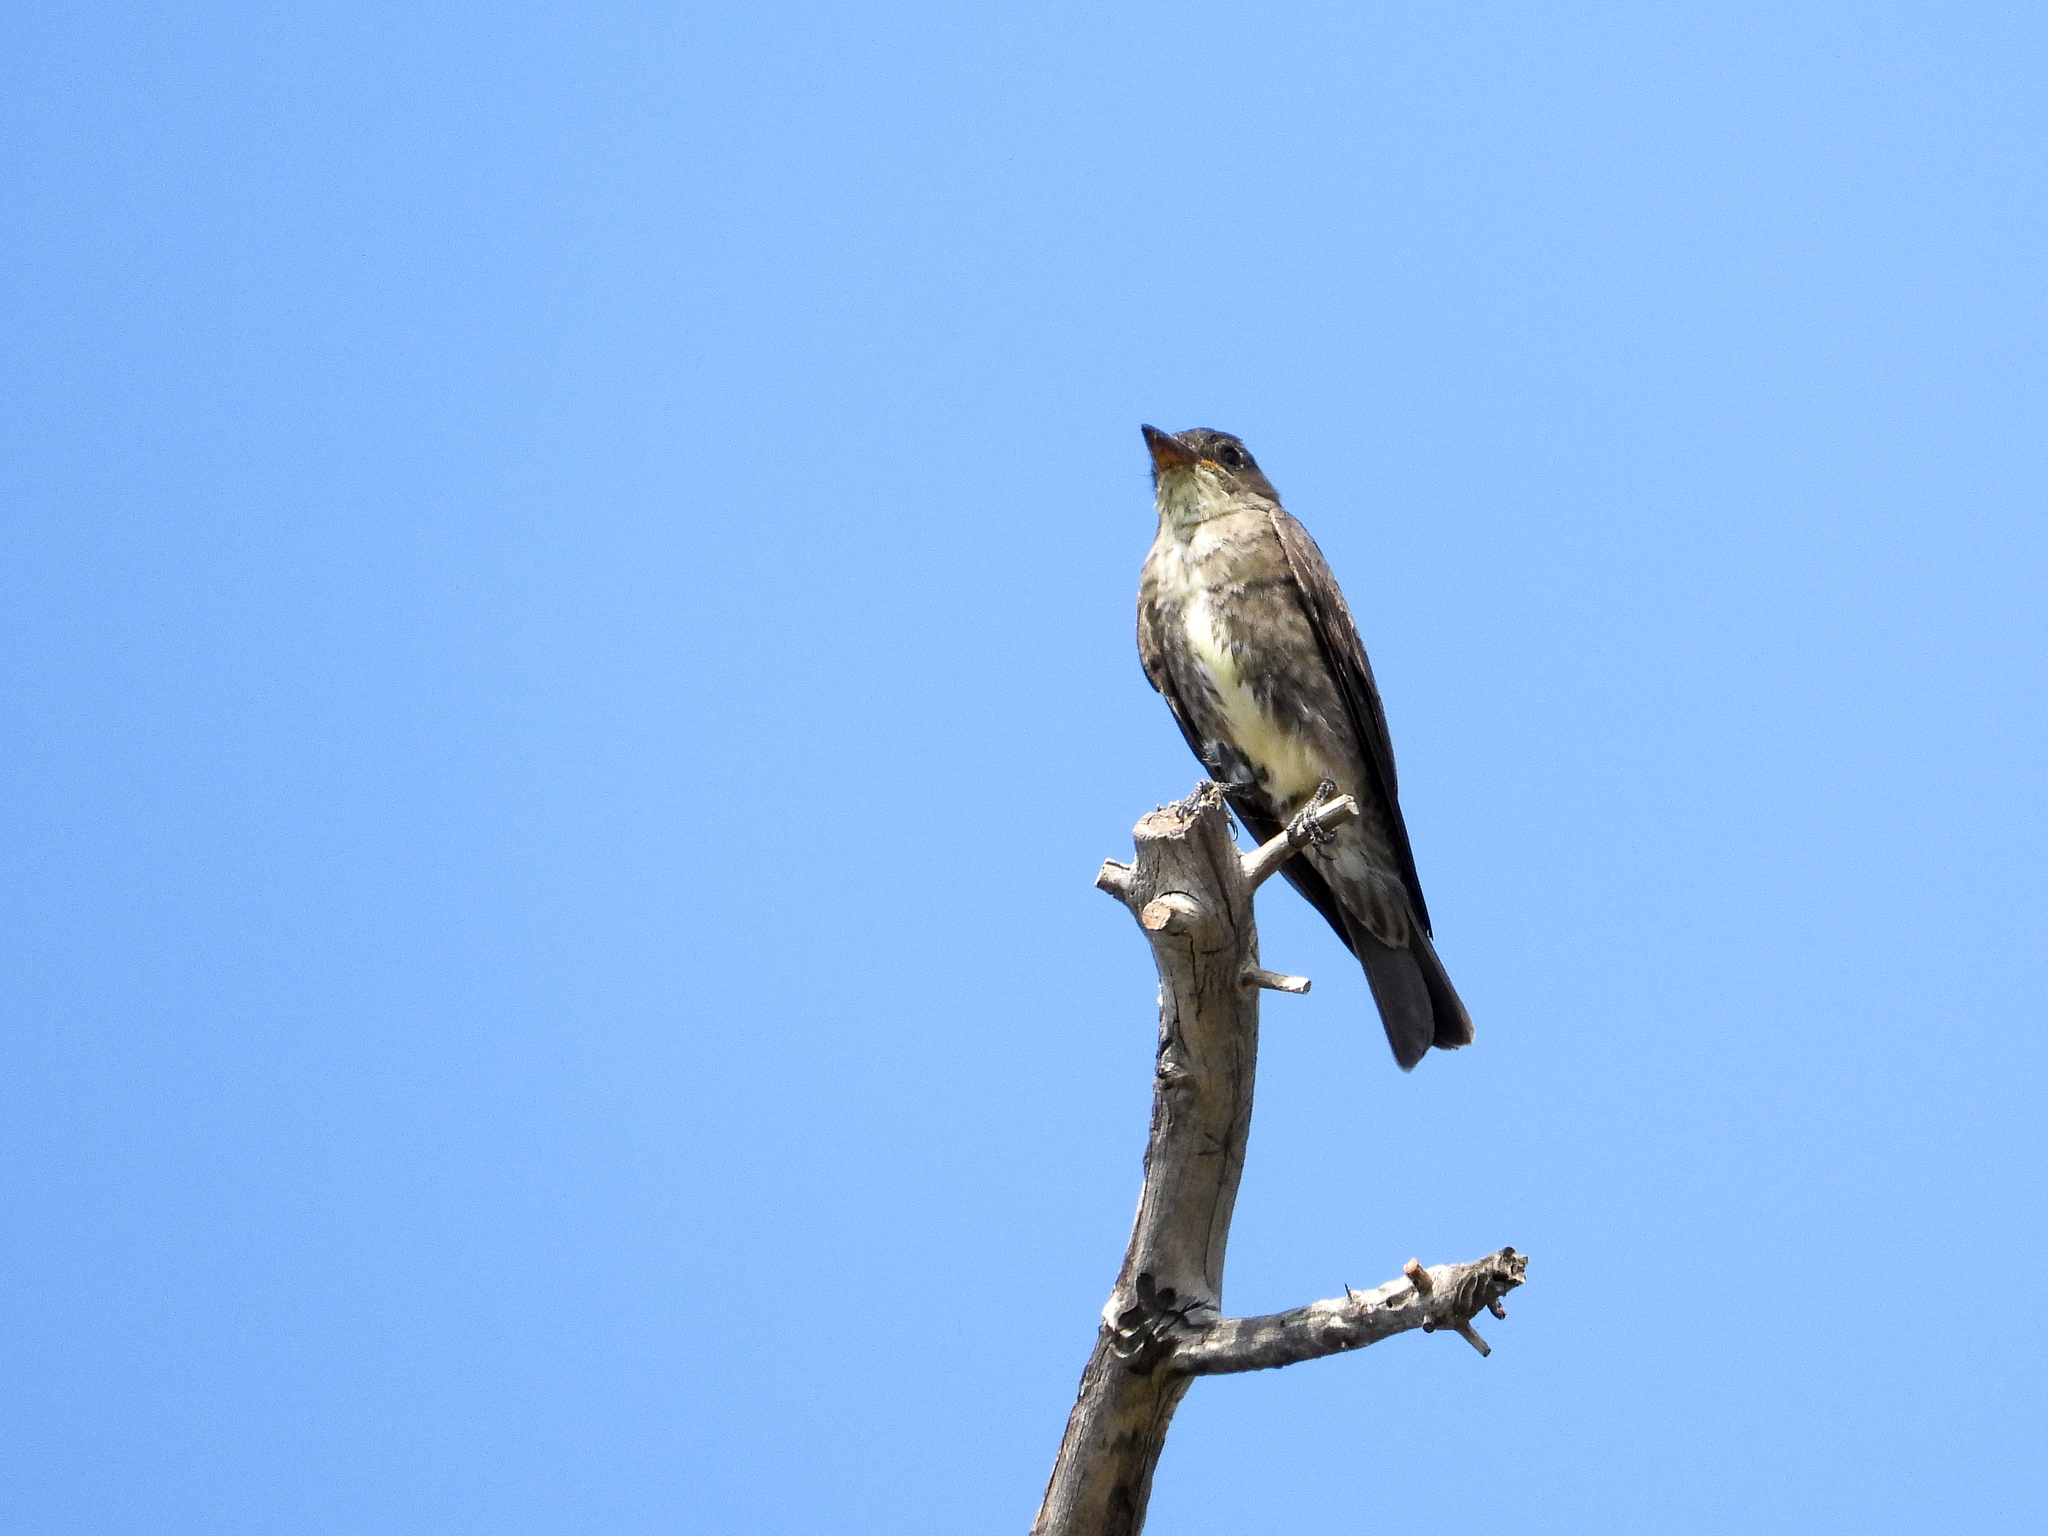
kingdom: Animalia
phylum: Chordata
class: Aves
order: Passeriformes
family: Tyrannidae
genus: Contopus
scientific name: Contopus cooperi
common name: Olive-sided flycatcher
